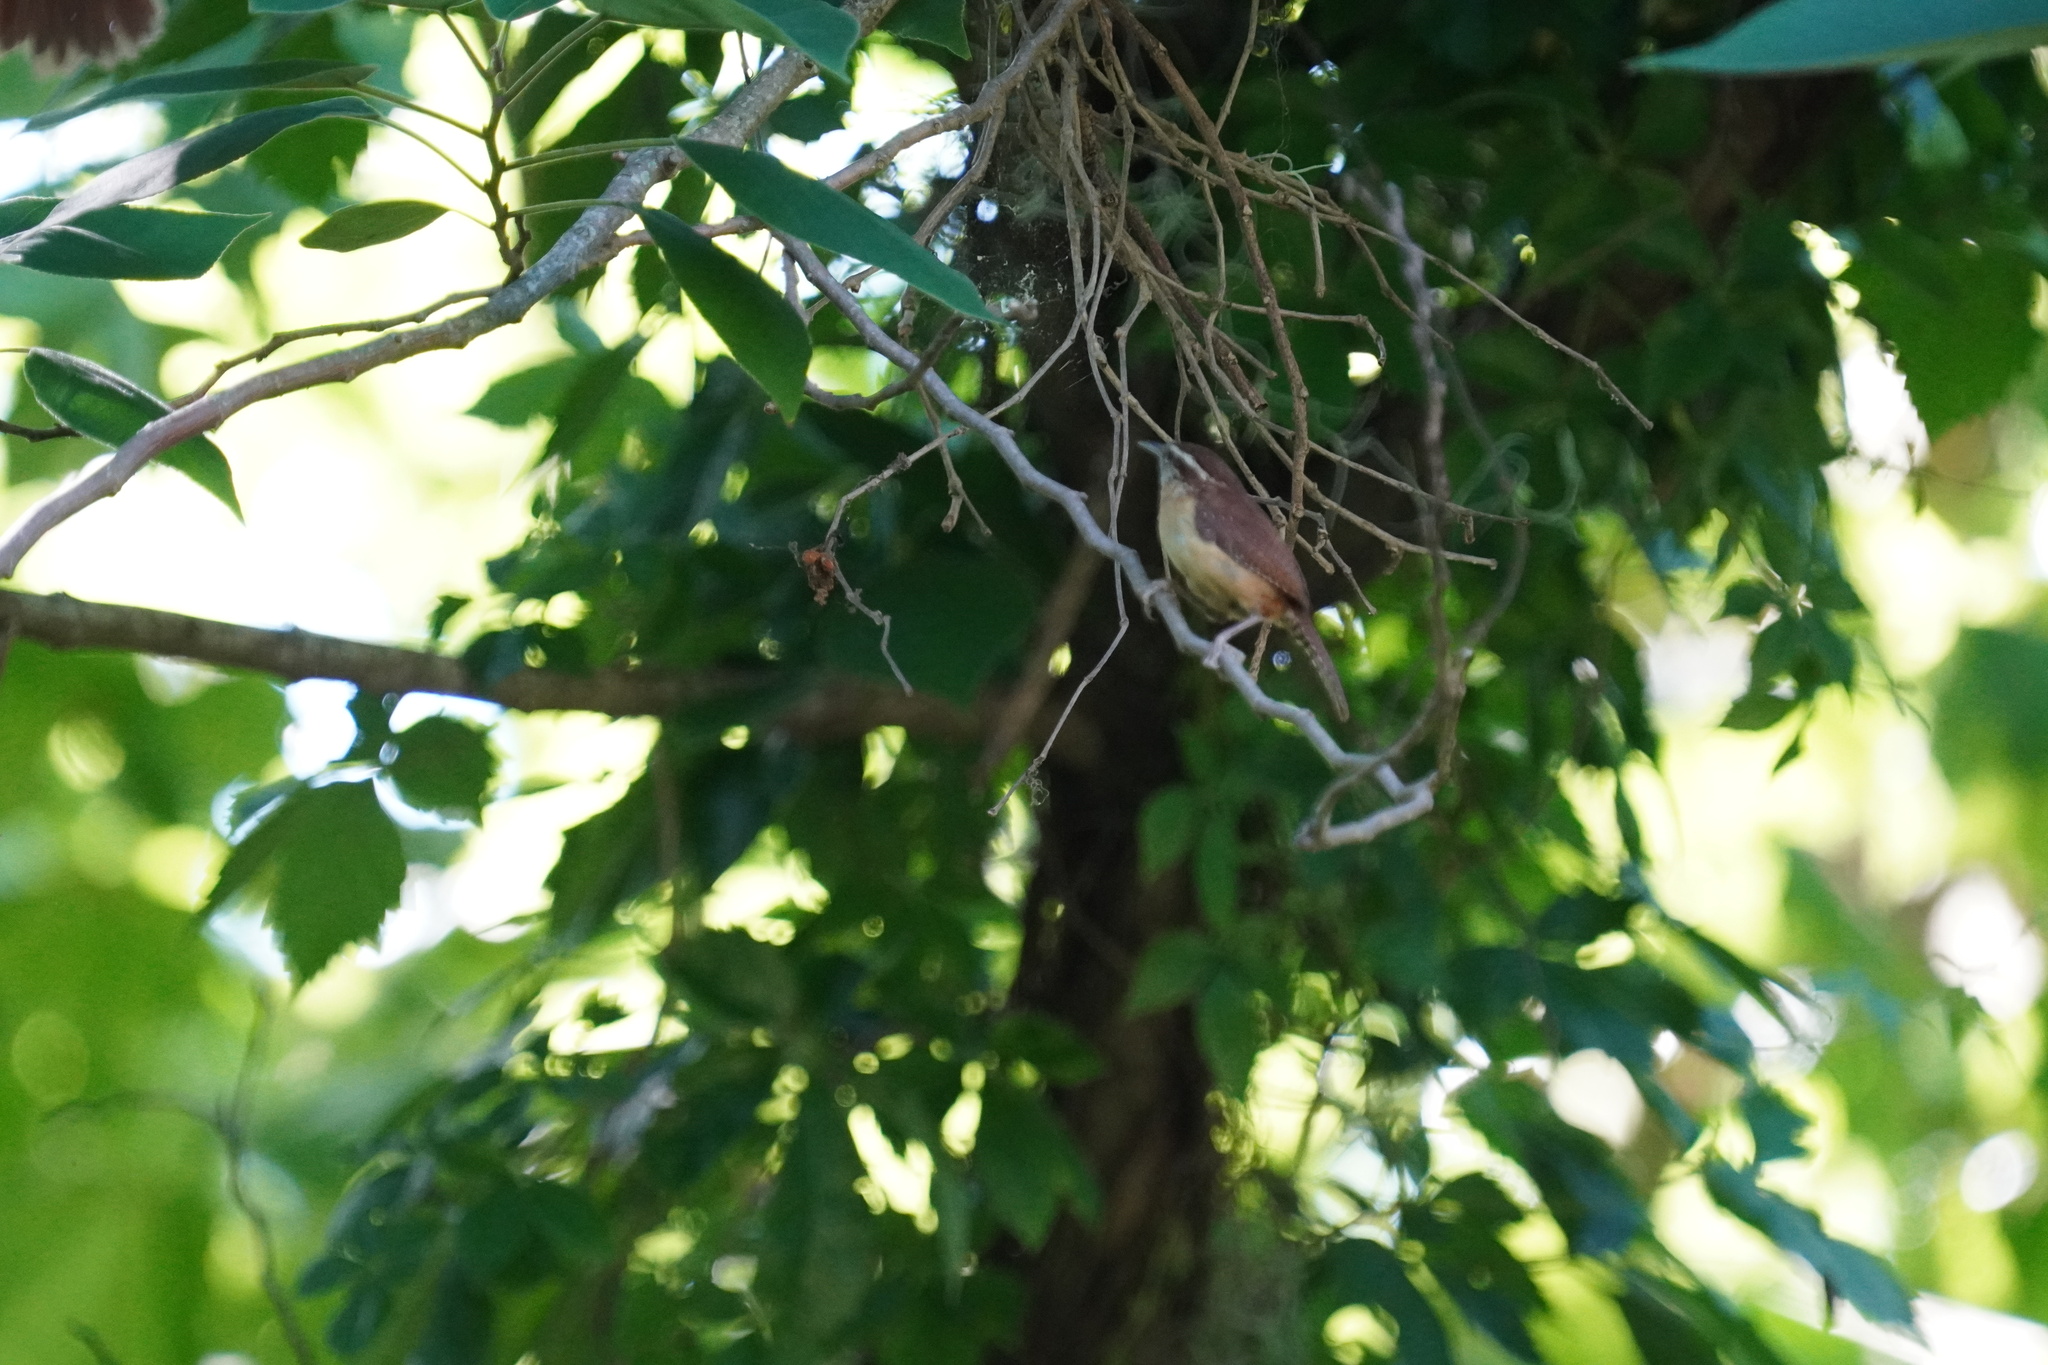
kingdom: Animalia
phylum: Chordata
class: Aves
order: Passeriformes
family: Troglodytidae
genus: Thryothorus
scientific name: Thryothorus ludovicianus
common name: Carolina wren
